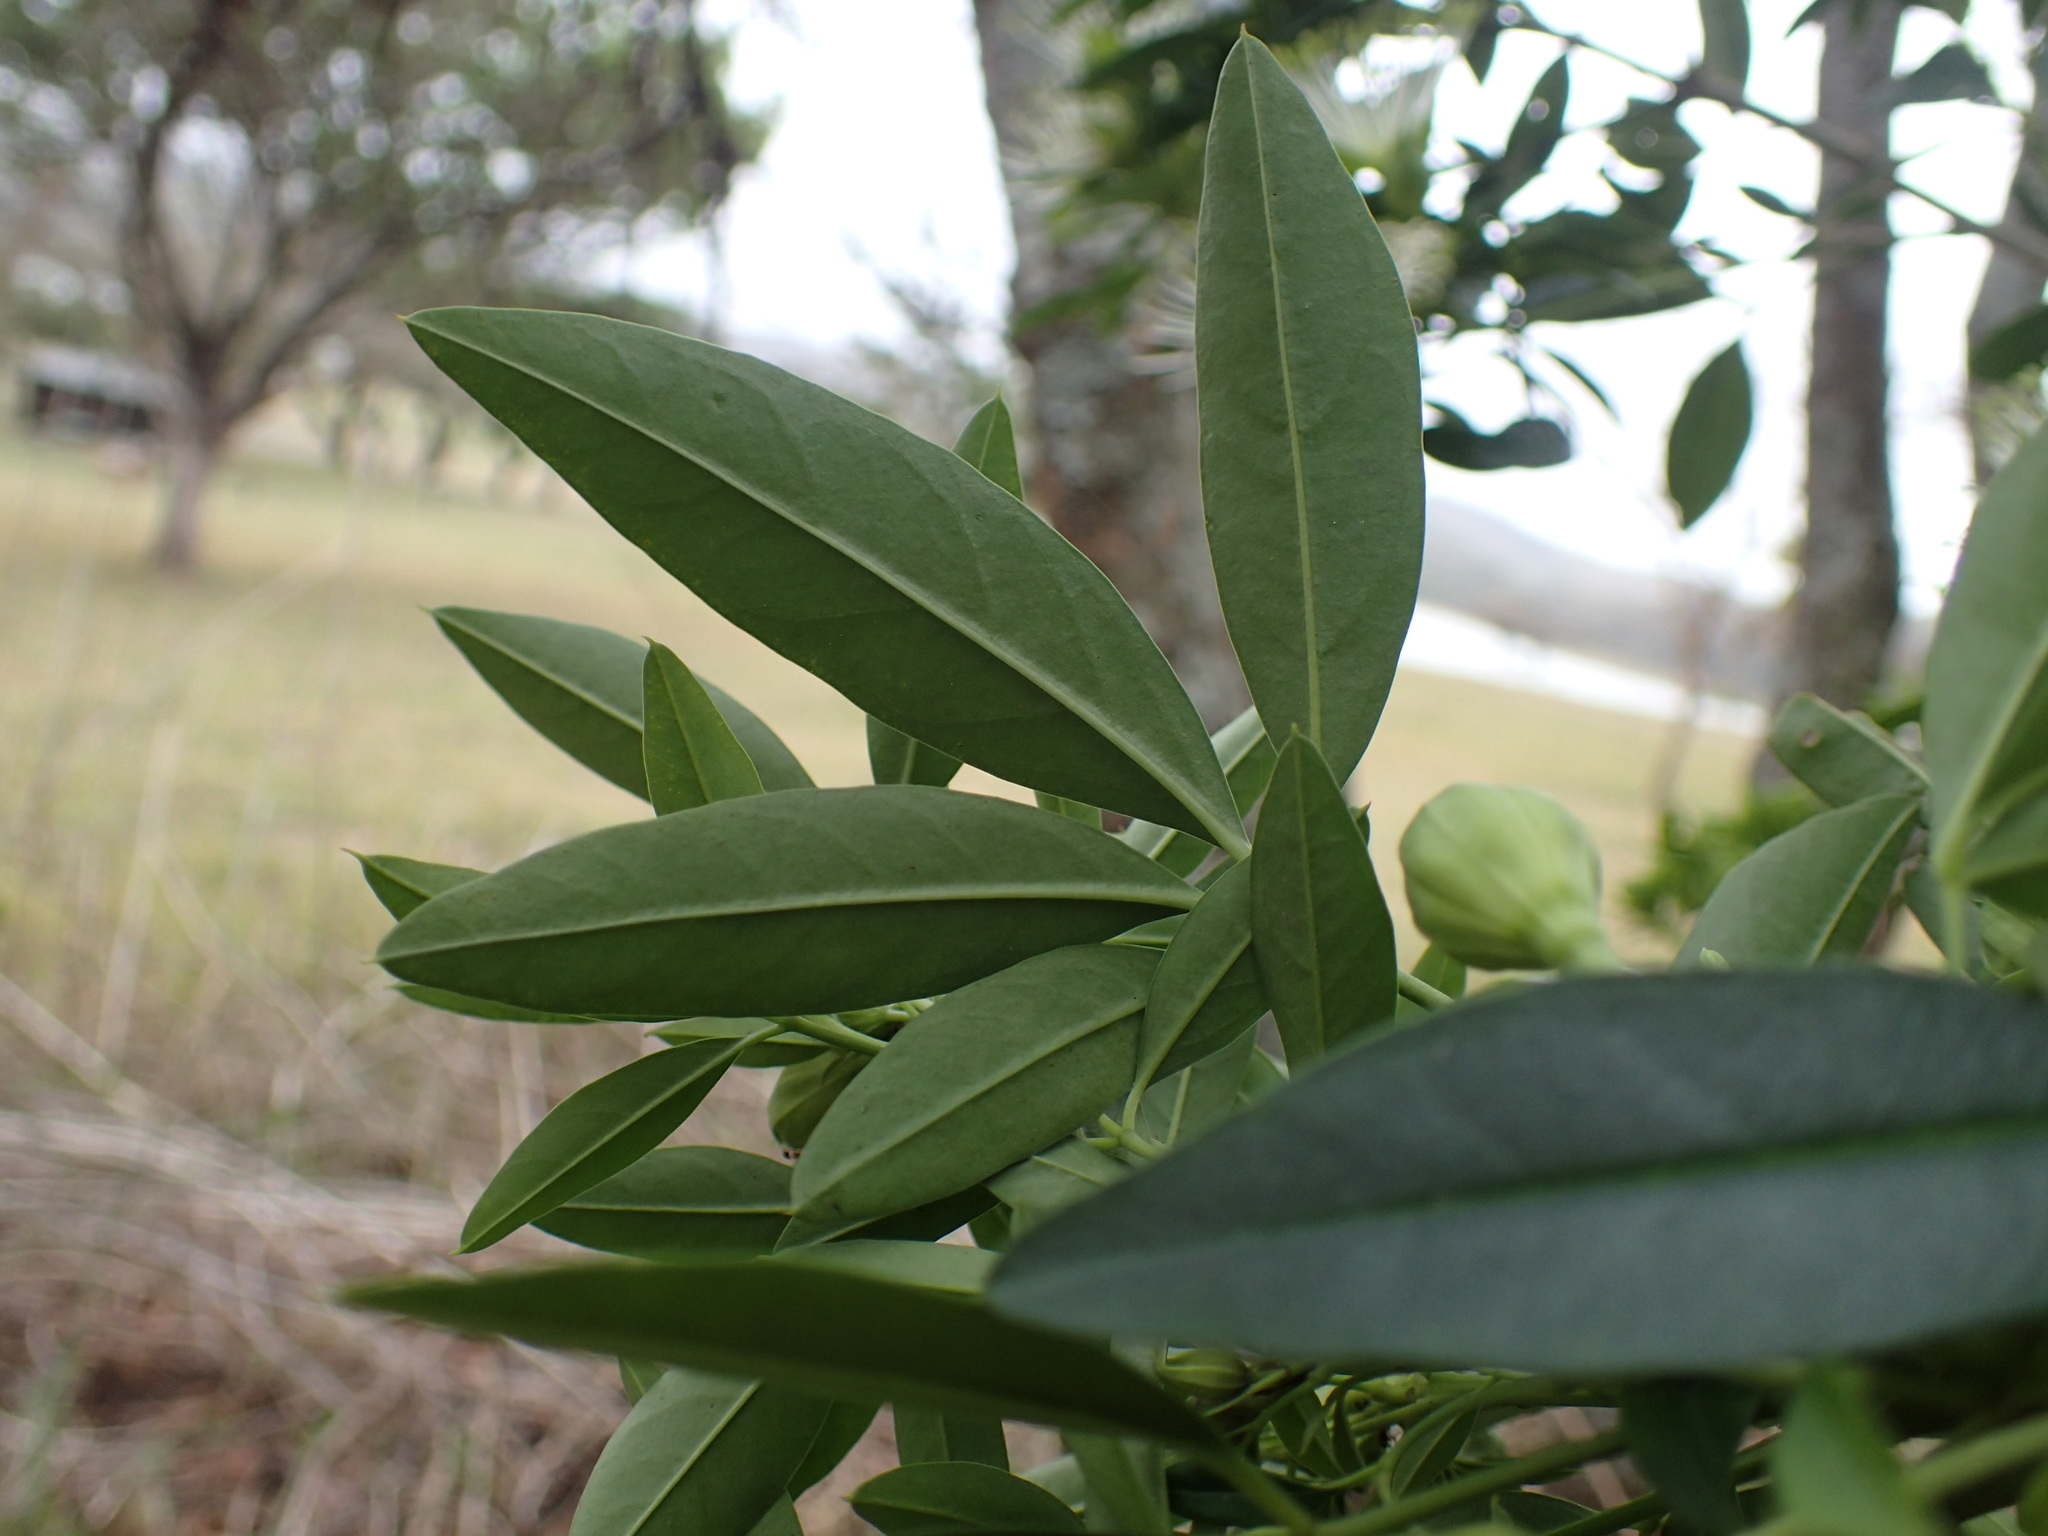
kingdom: Plantae
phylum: Tracheophyta
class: Magnoliopsida
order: Brassicales
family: Capparaceae
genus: Maerua
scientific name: Maerua cafra
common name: Bush maerua
